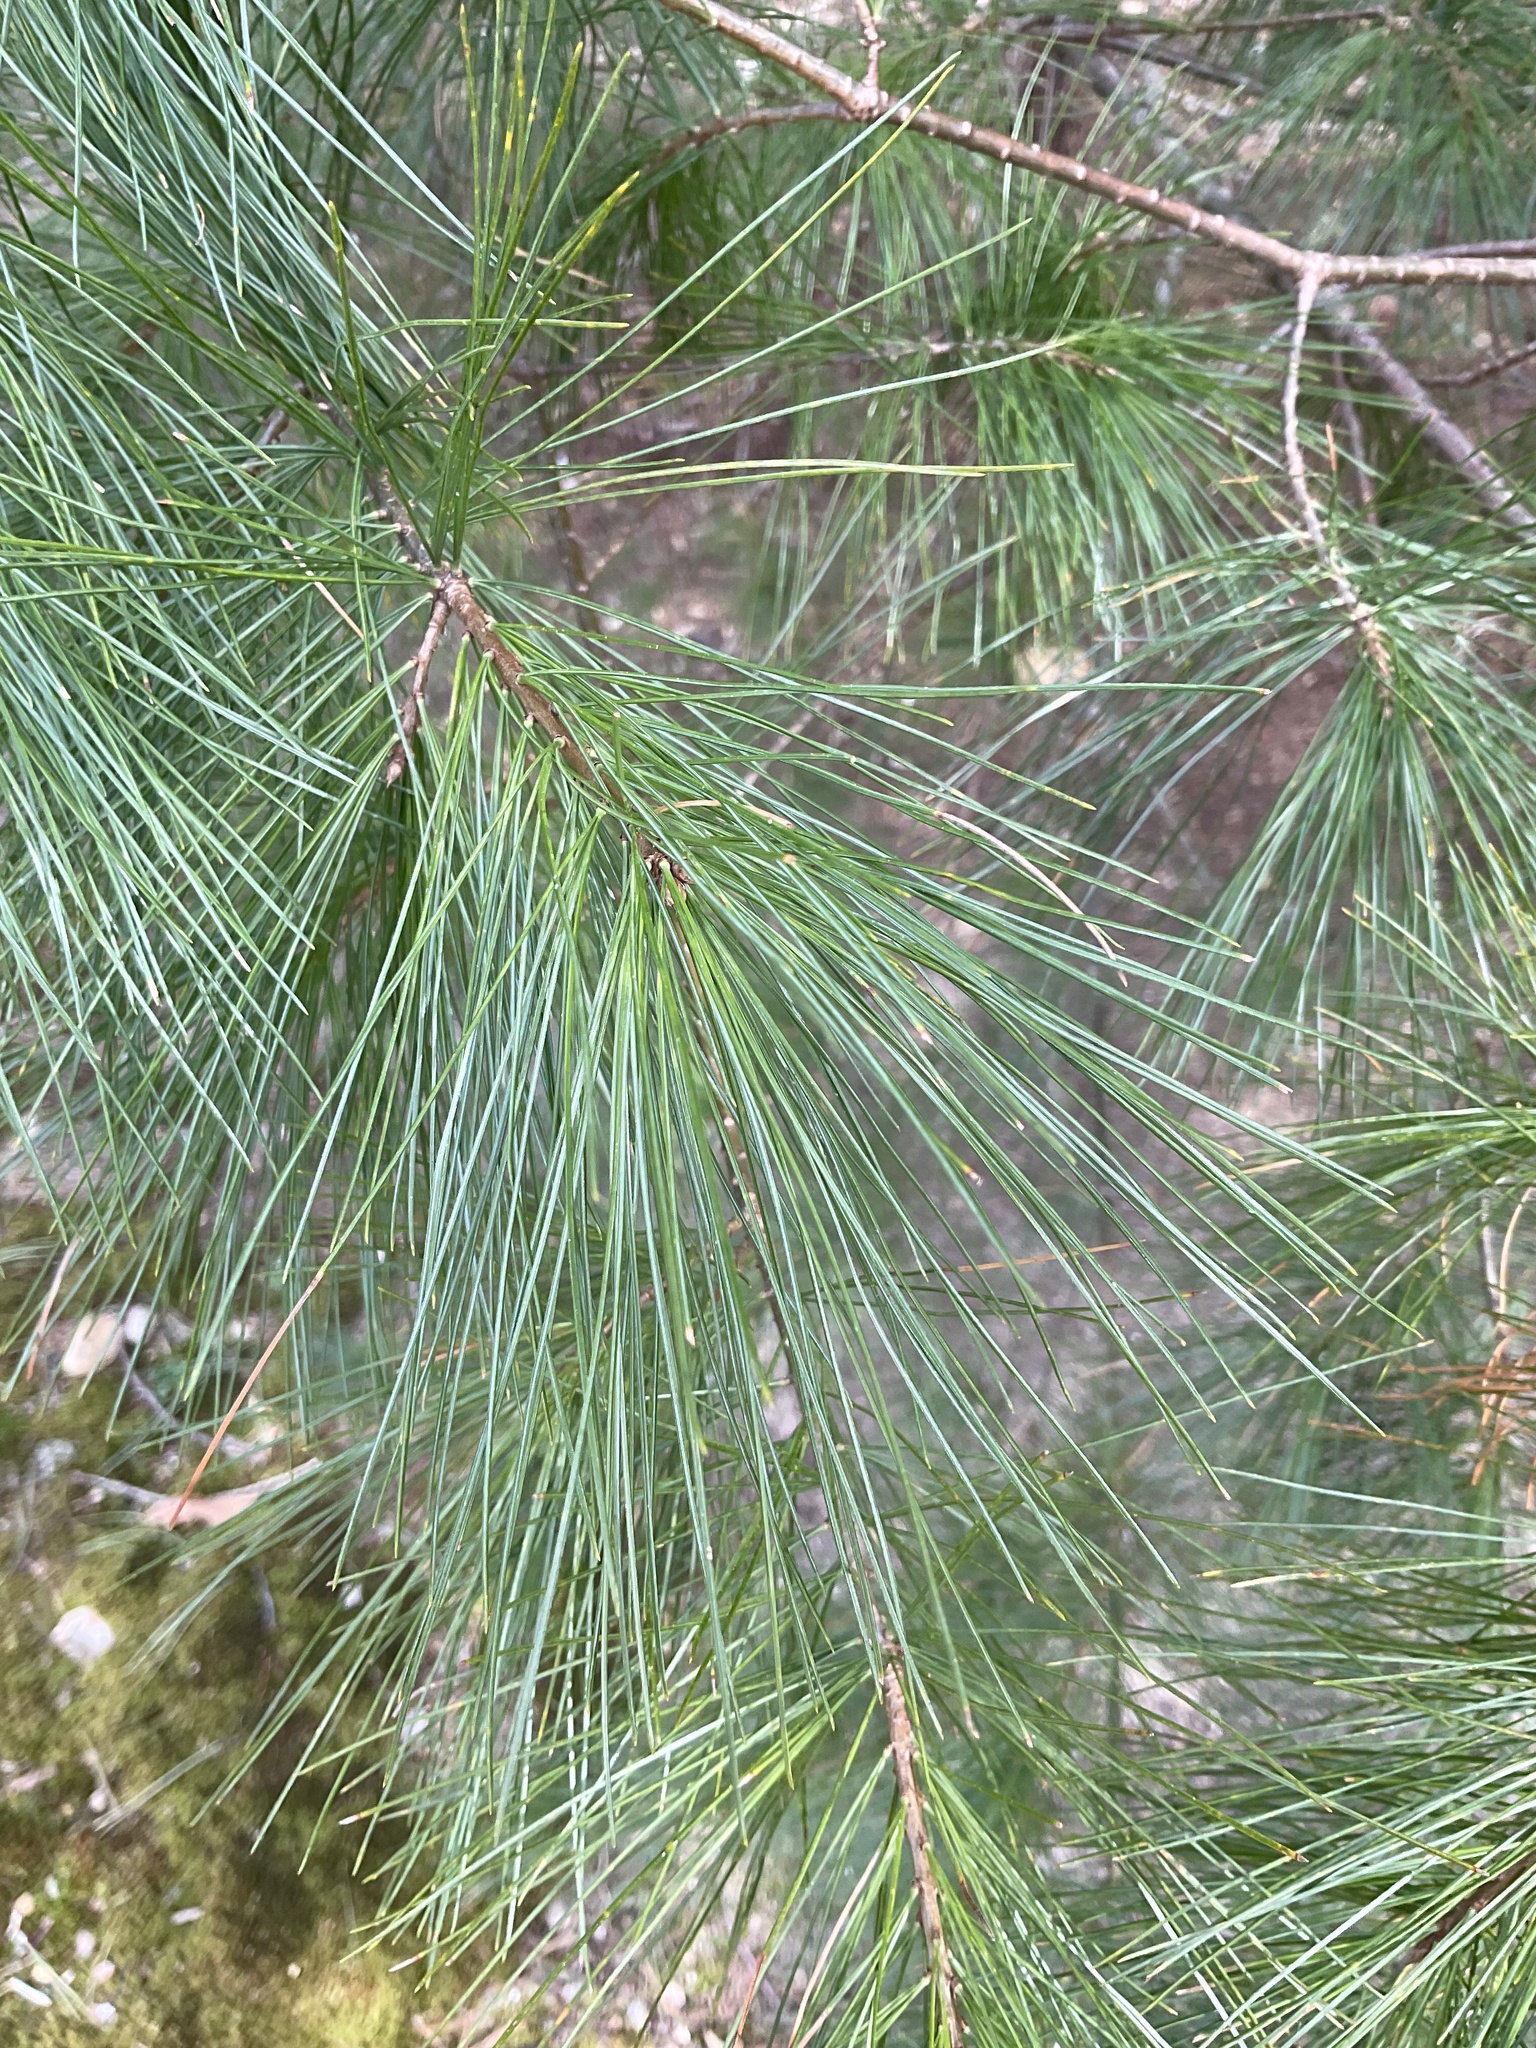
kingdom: Plantae
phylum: Tracheophyta
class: Pinopsida
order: Pinales
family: Pinaceae
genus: Pinus
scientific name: Pinus strobus
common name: Weymouth pine
